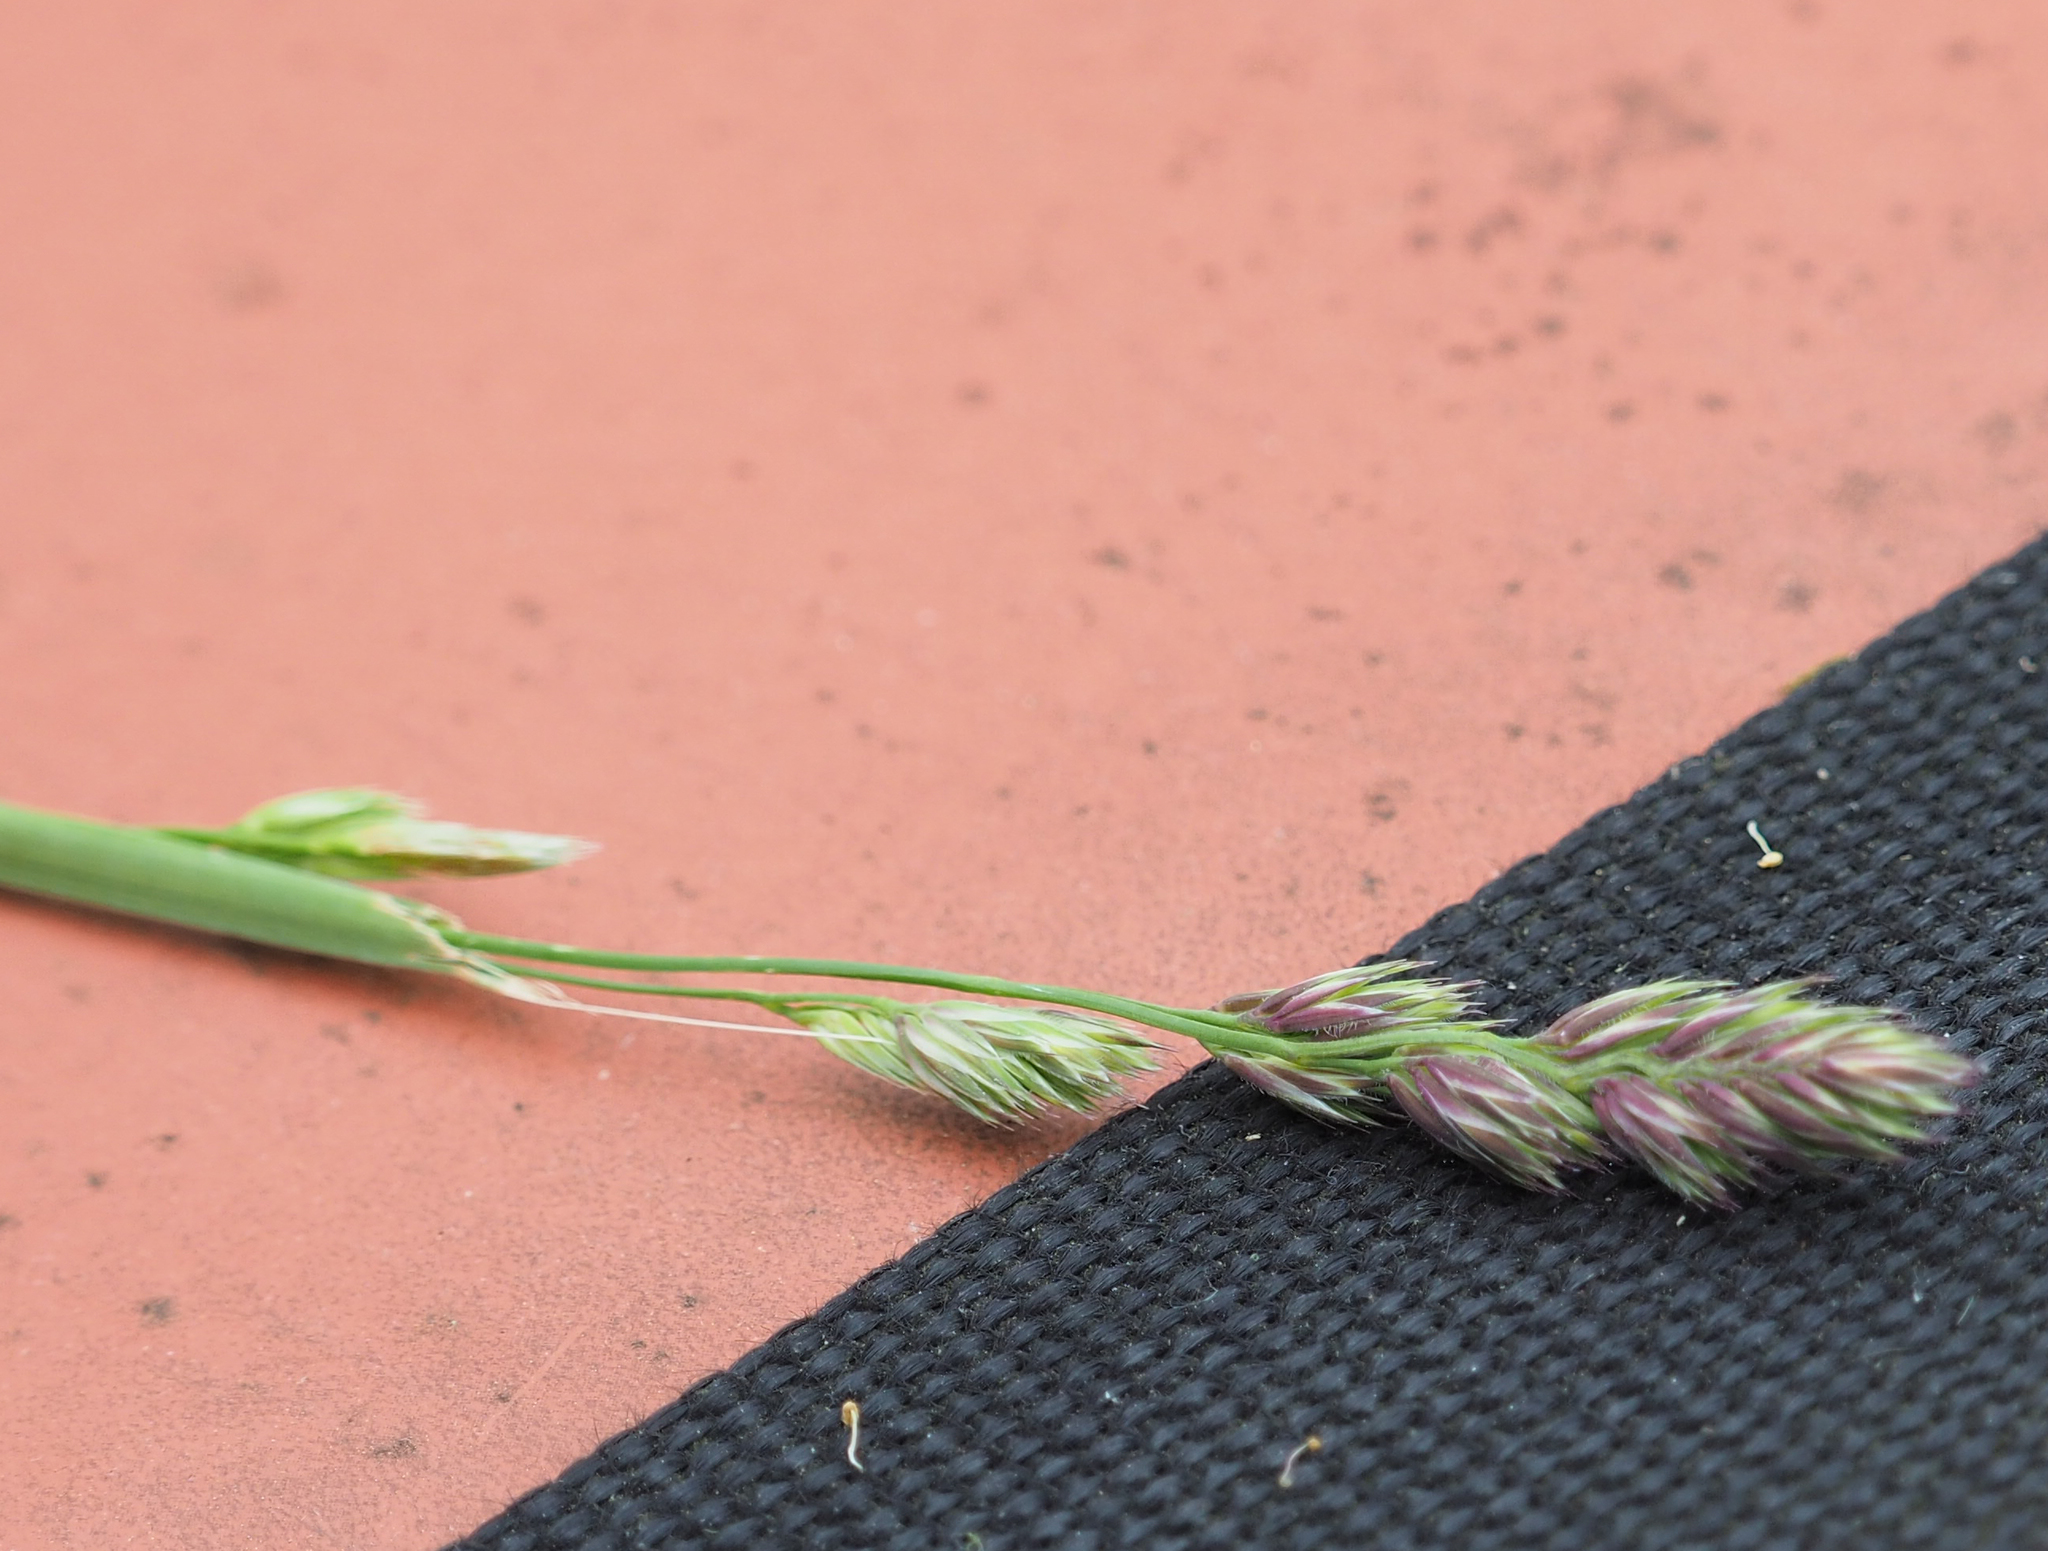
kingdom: Plantae
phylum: Tracheophyta
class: Liliopsida
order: Poales
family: Poaceae
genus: Dactylis
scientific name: Dactylis glomerata
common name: Orchardgrass
